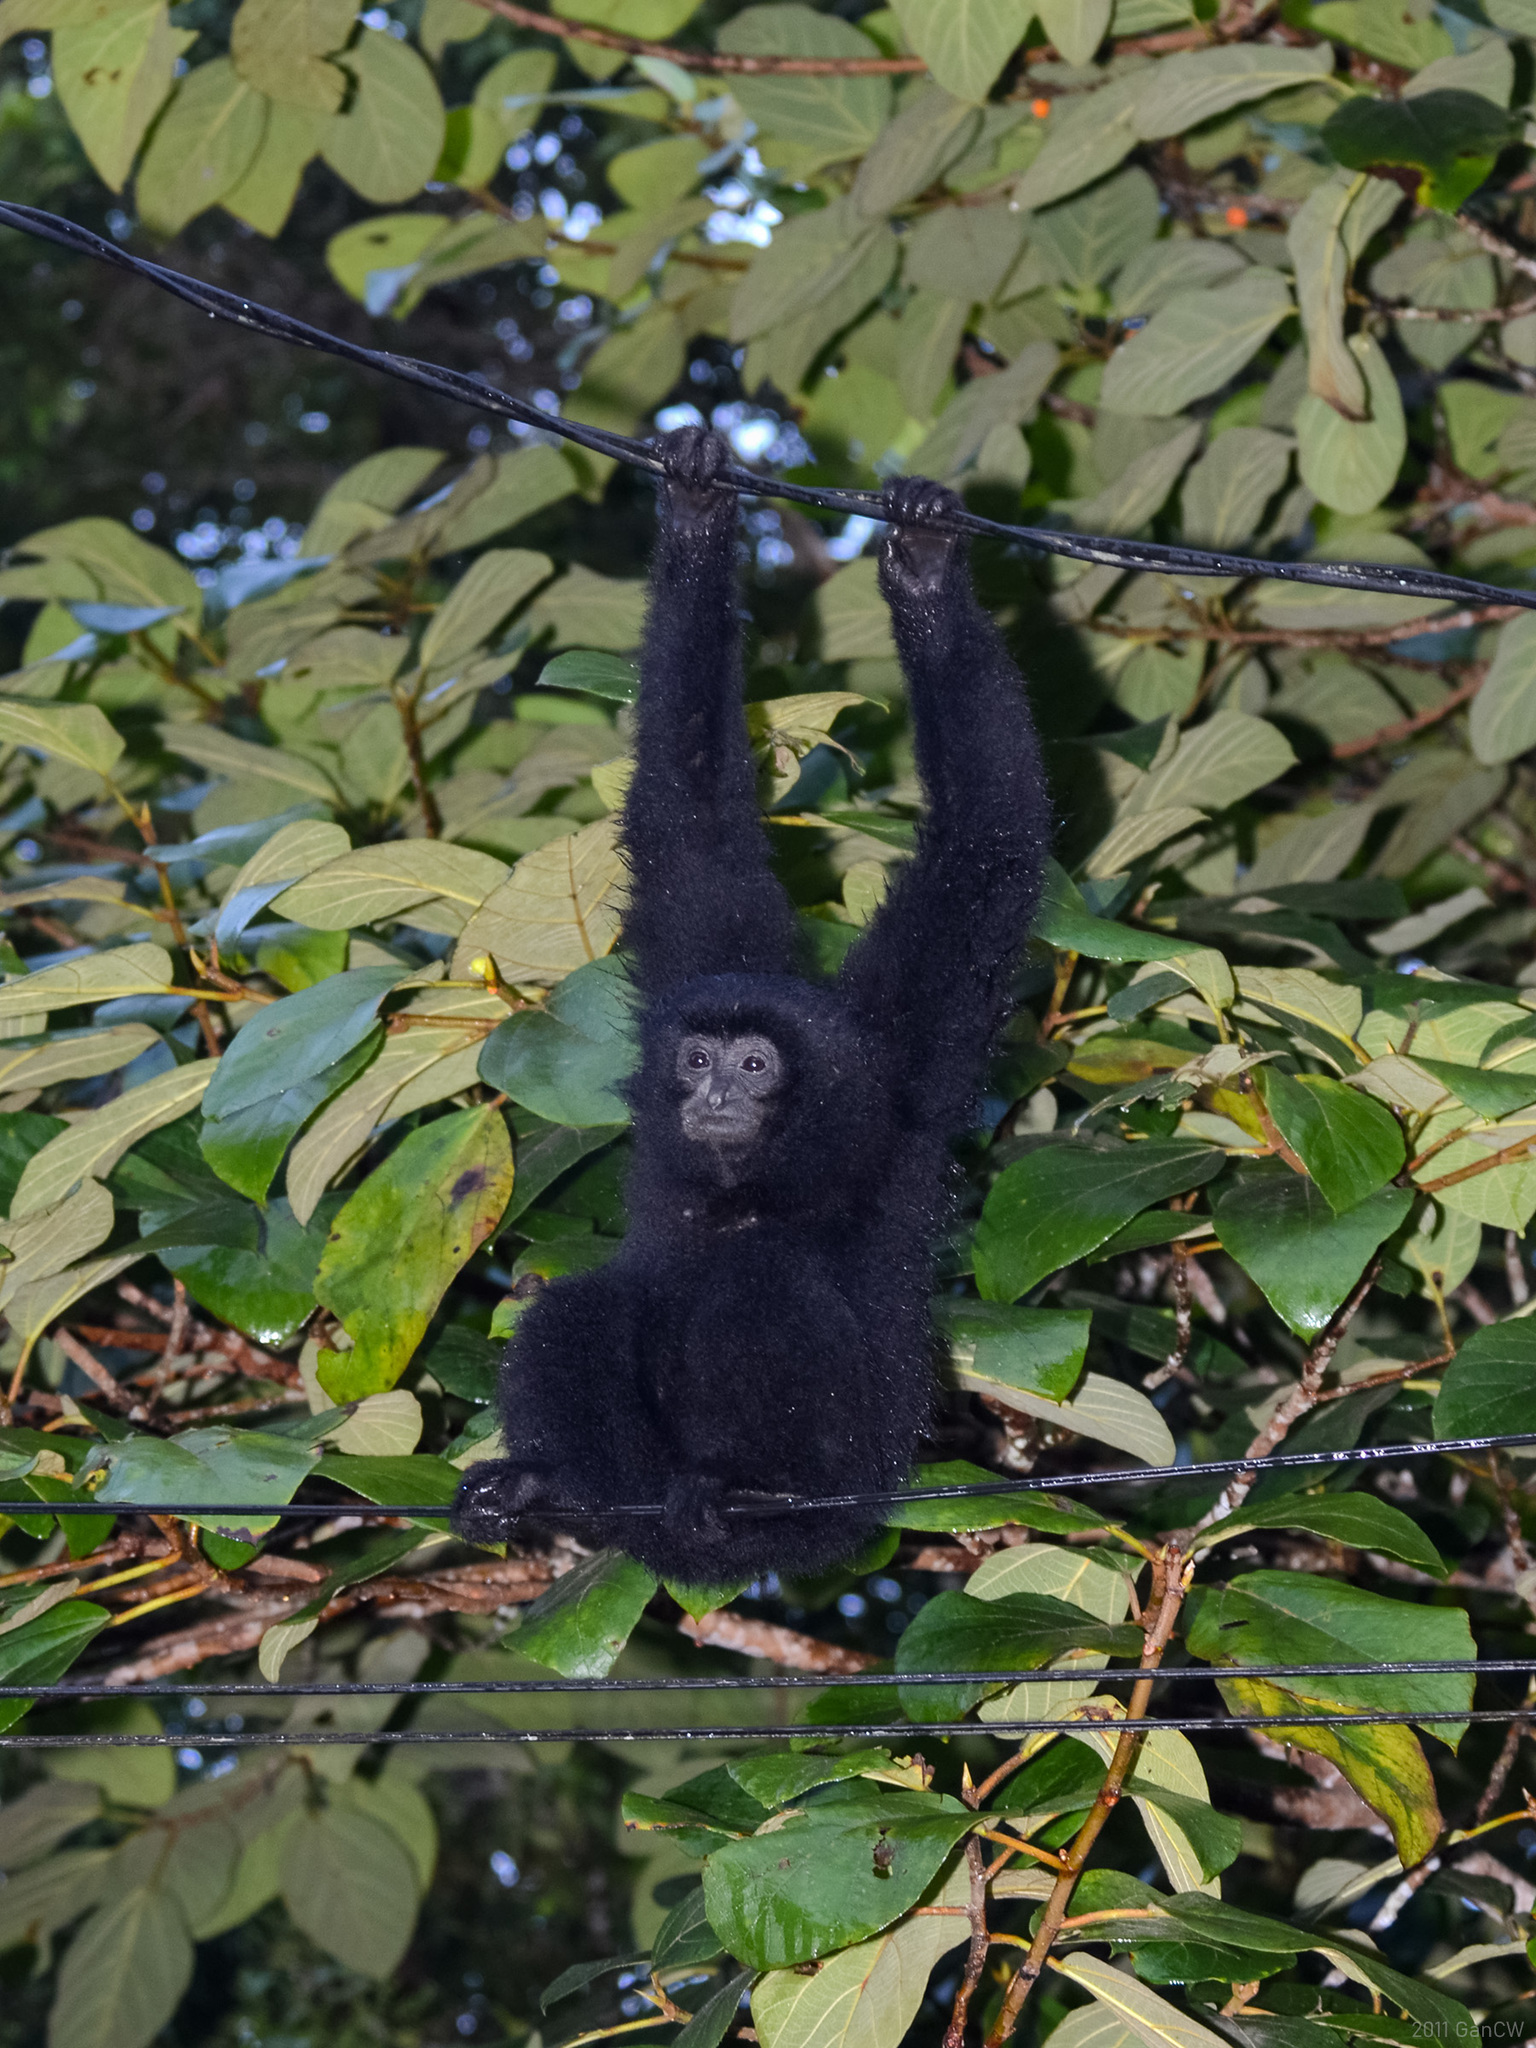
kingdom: Animalia
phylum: Chordata
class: Mammalia
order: Primates
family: Hylobatidae
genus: Symphalangus
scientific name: Symphalangus syndactylus
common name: Siamang
